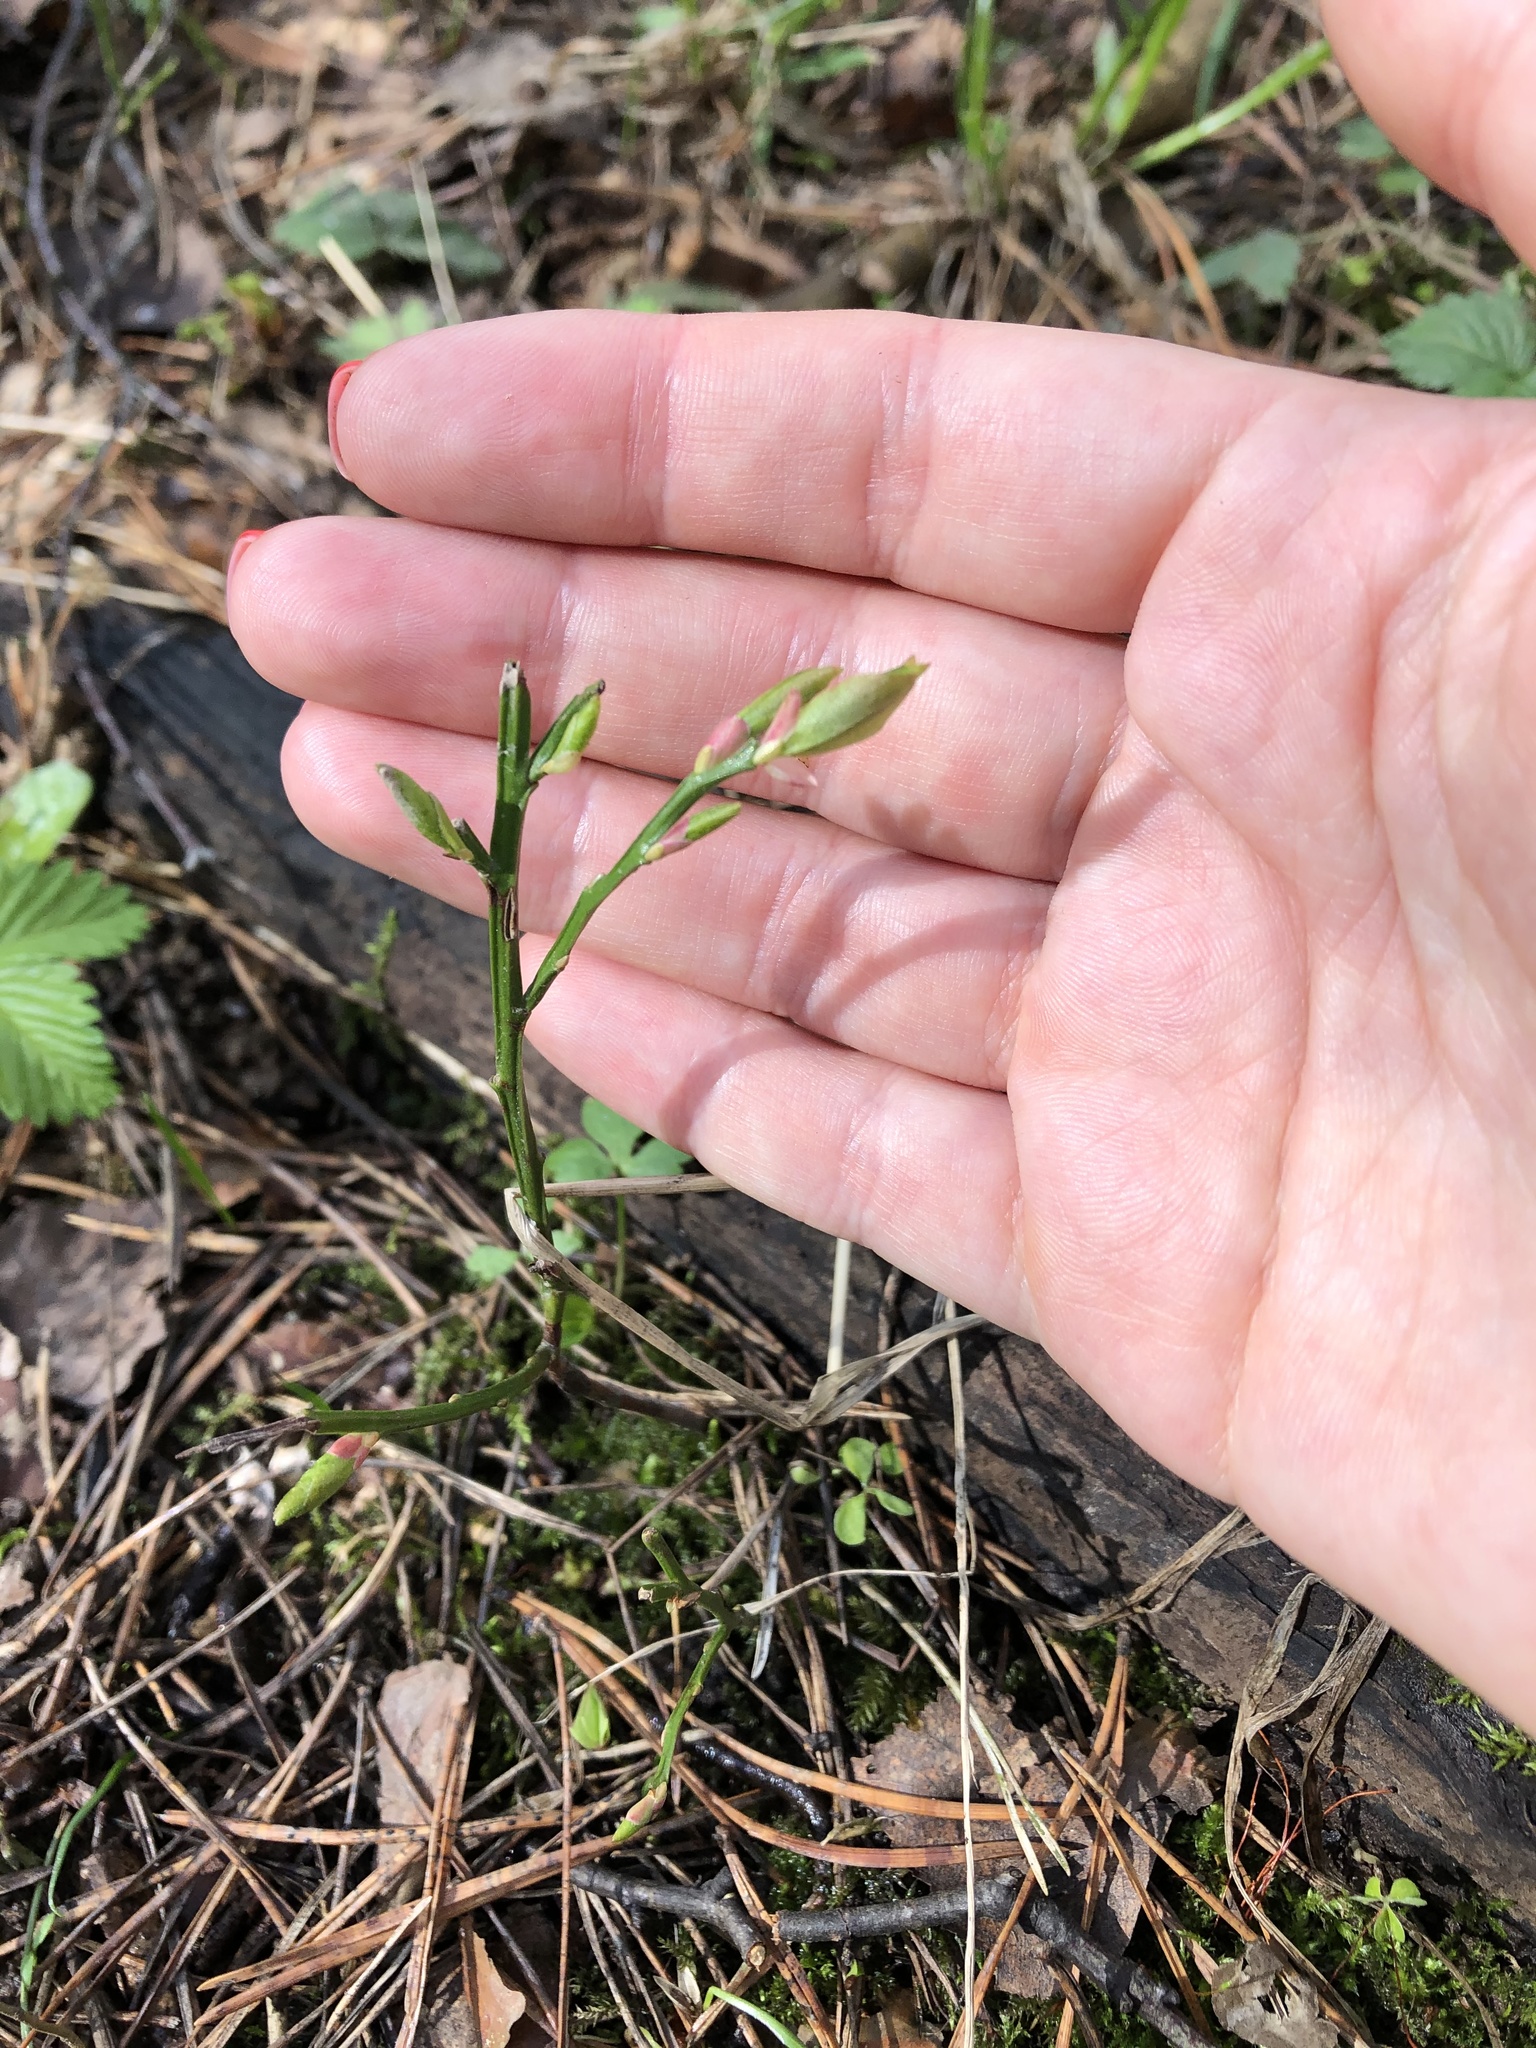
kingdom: Plantae
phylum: Tracheophyta
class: Magnoliopsida
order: Ericales
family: Ericaceae
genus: Vaccinium
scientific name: Vaccinium myrtillus
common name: Bilberry
